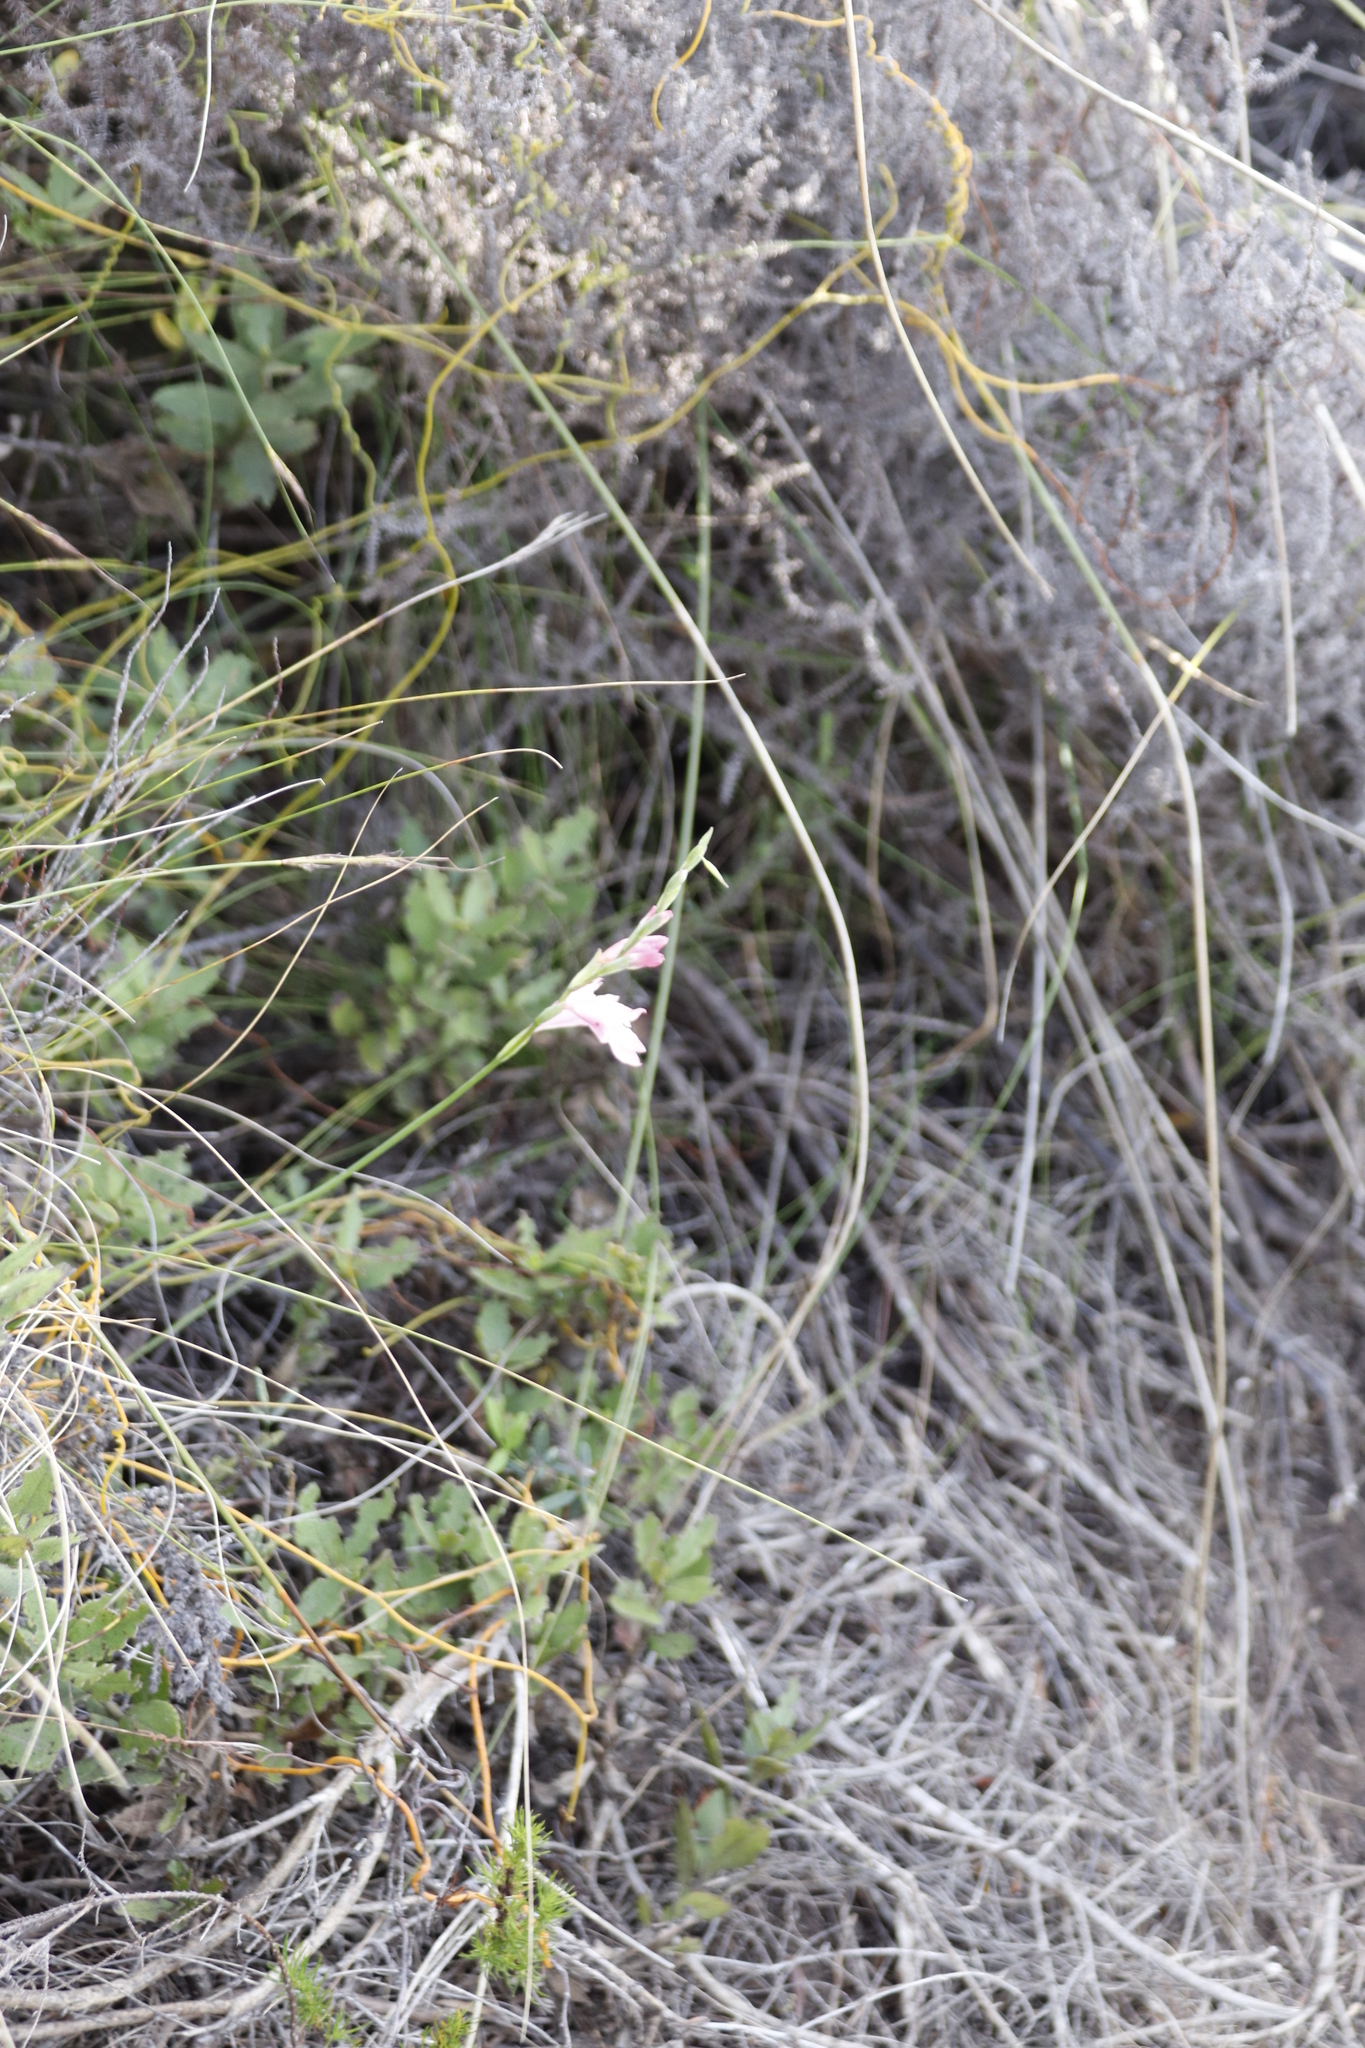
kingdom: Plantae
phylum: Tracheophyta
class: Liliopsida
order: Asparagales
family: Iridaceae
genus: Gladiolus
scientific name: Gladiolus brevifolius
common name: March pypie
